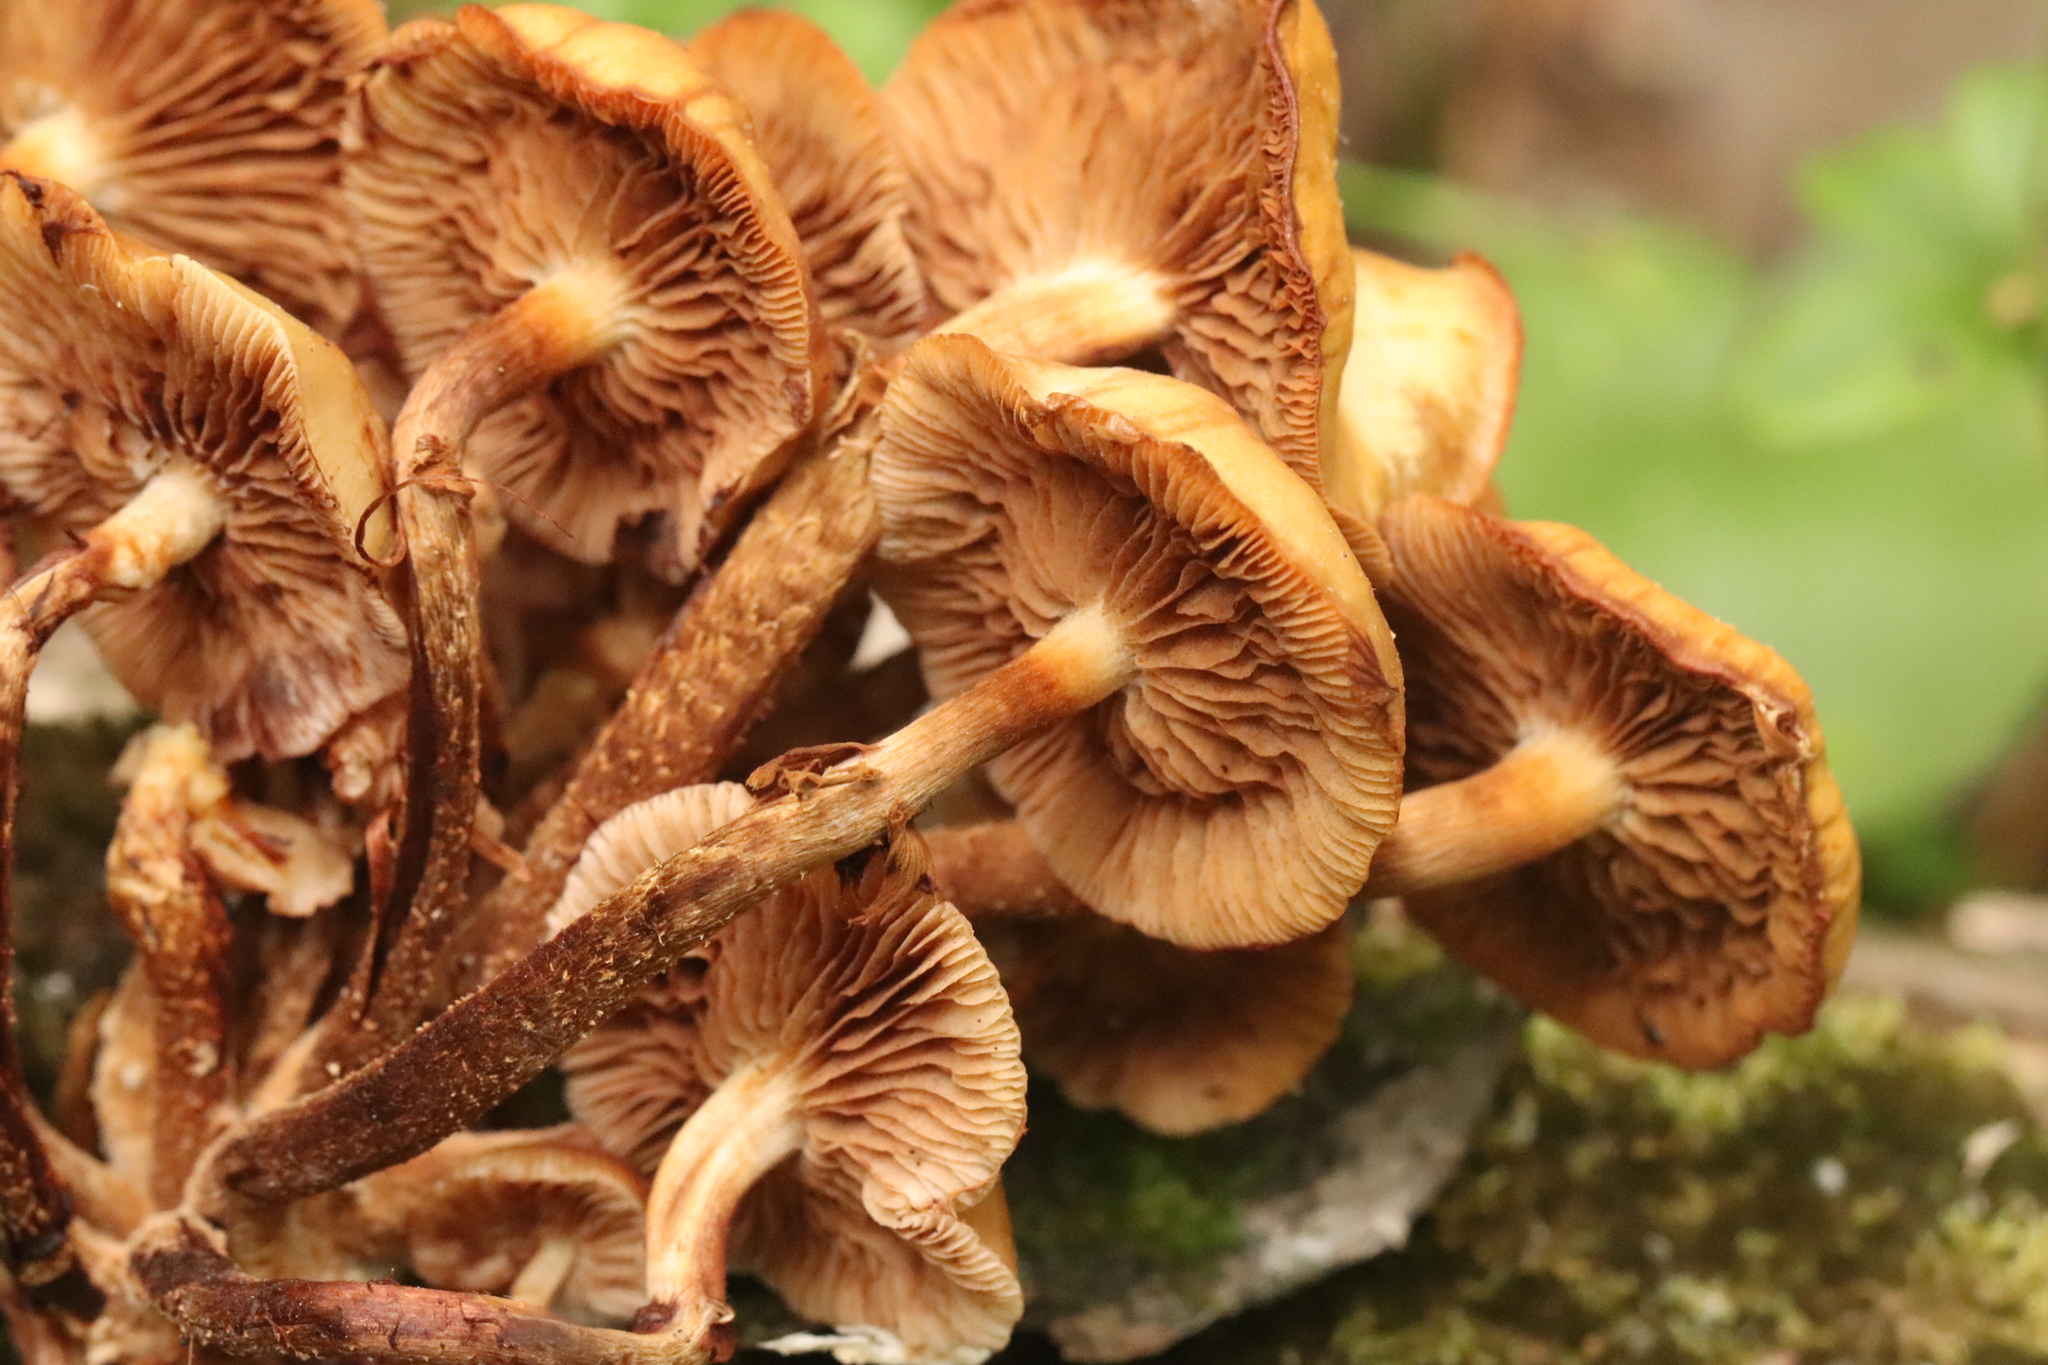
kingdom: Fungi
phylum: Basidiomycota
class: Agaricomycetes
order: Agaricales
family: Strophariaceae
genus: Kuehneromyces
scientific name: Kuehneromyces mutabilis
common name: Sheathed woodtuft
